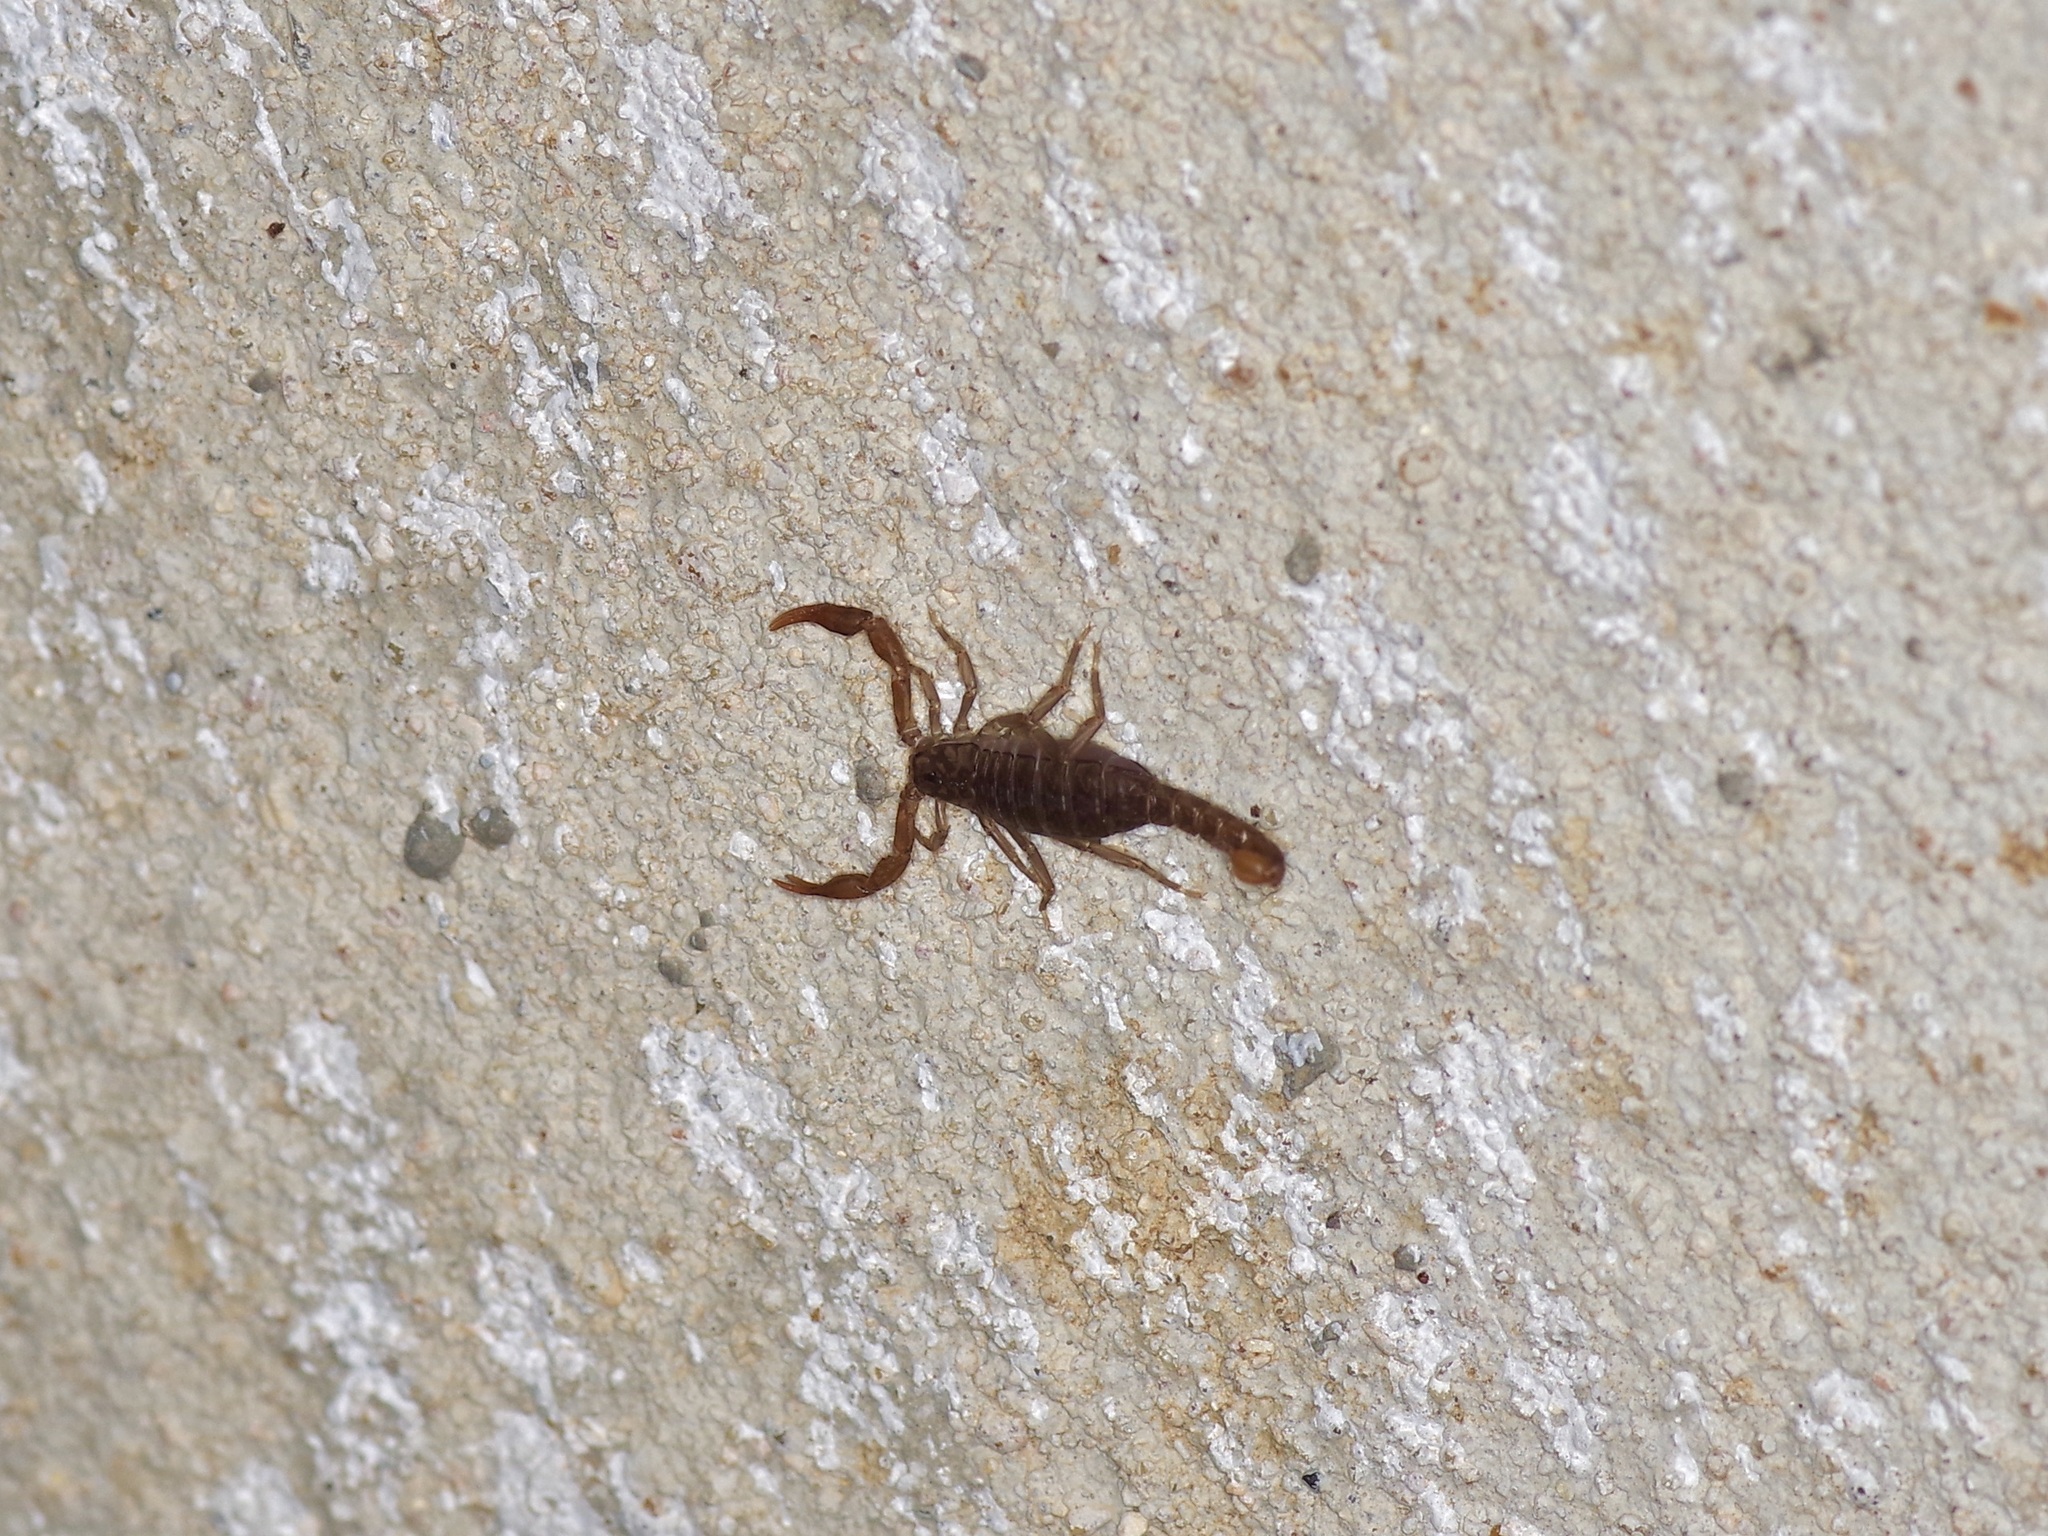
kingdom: Animalia
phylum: Arthropoda
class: Arachnida
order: Scorpiones
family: Vaejovidae
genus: Pseudouroctonus
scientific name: Pseudouroctonus reddelli
